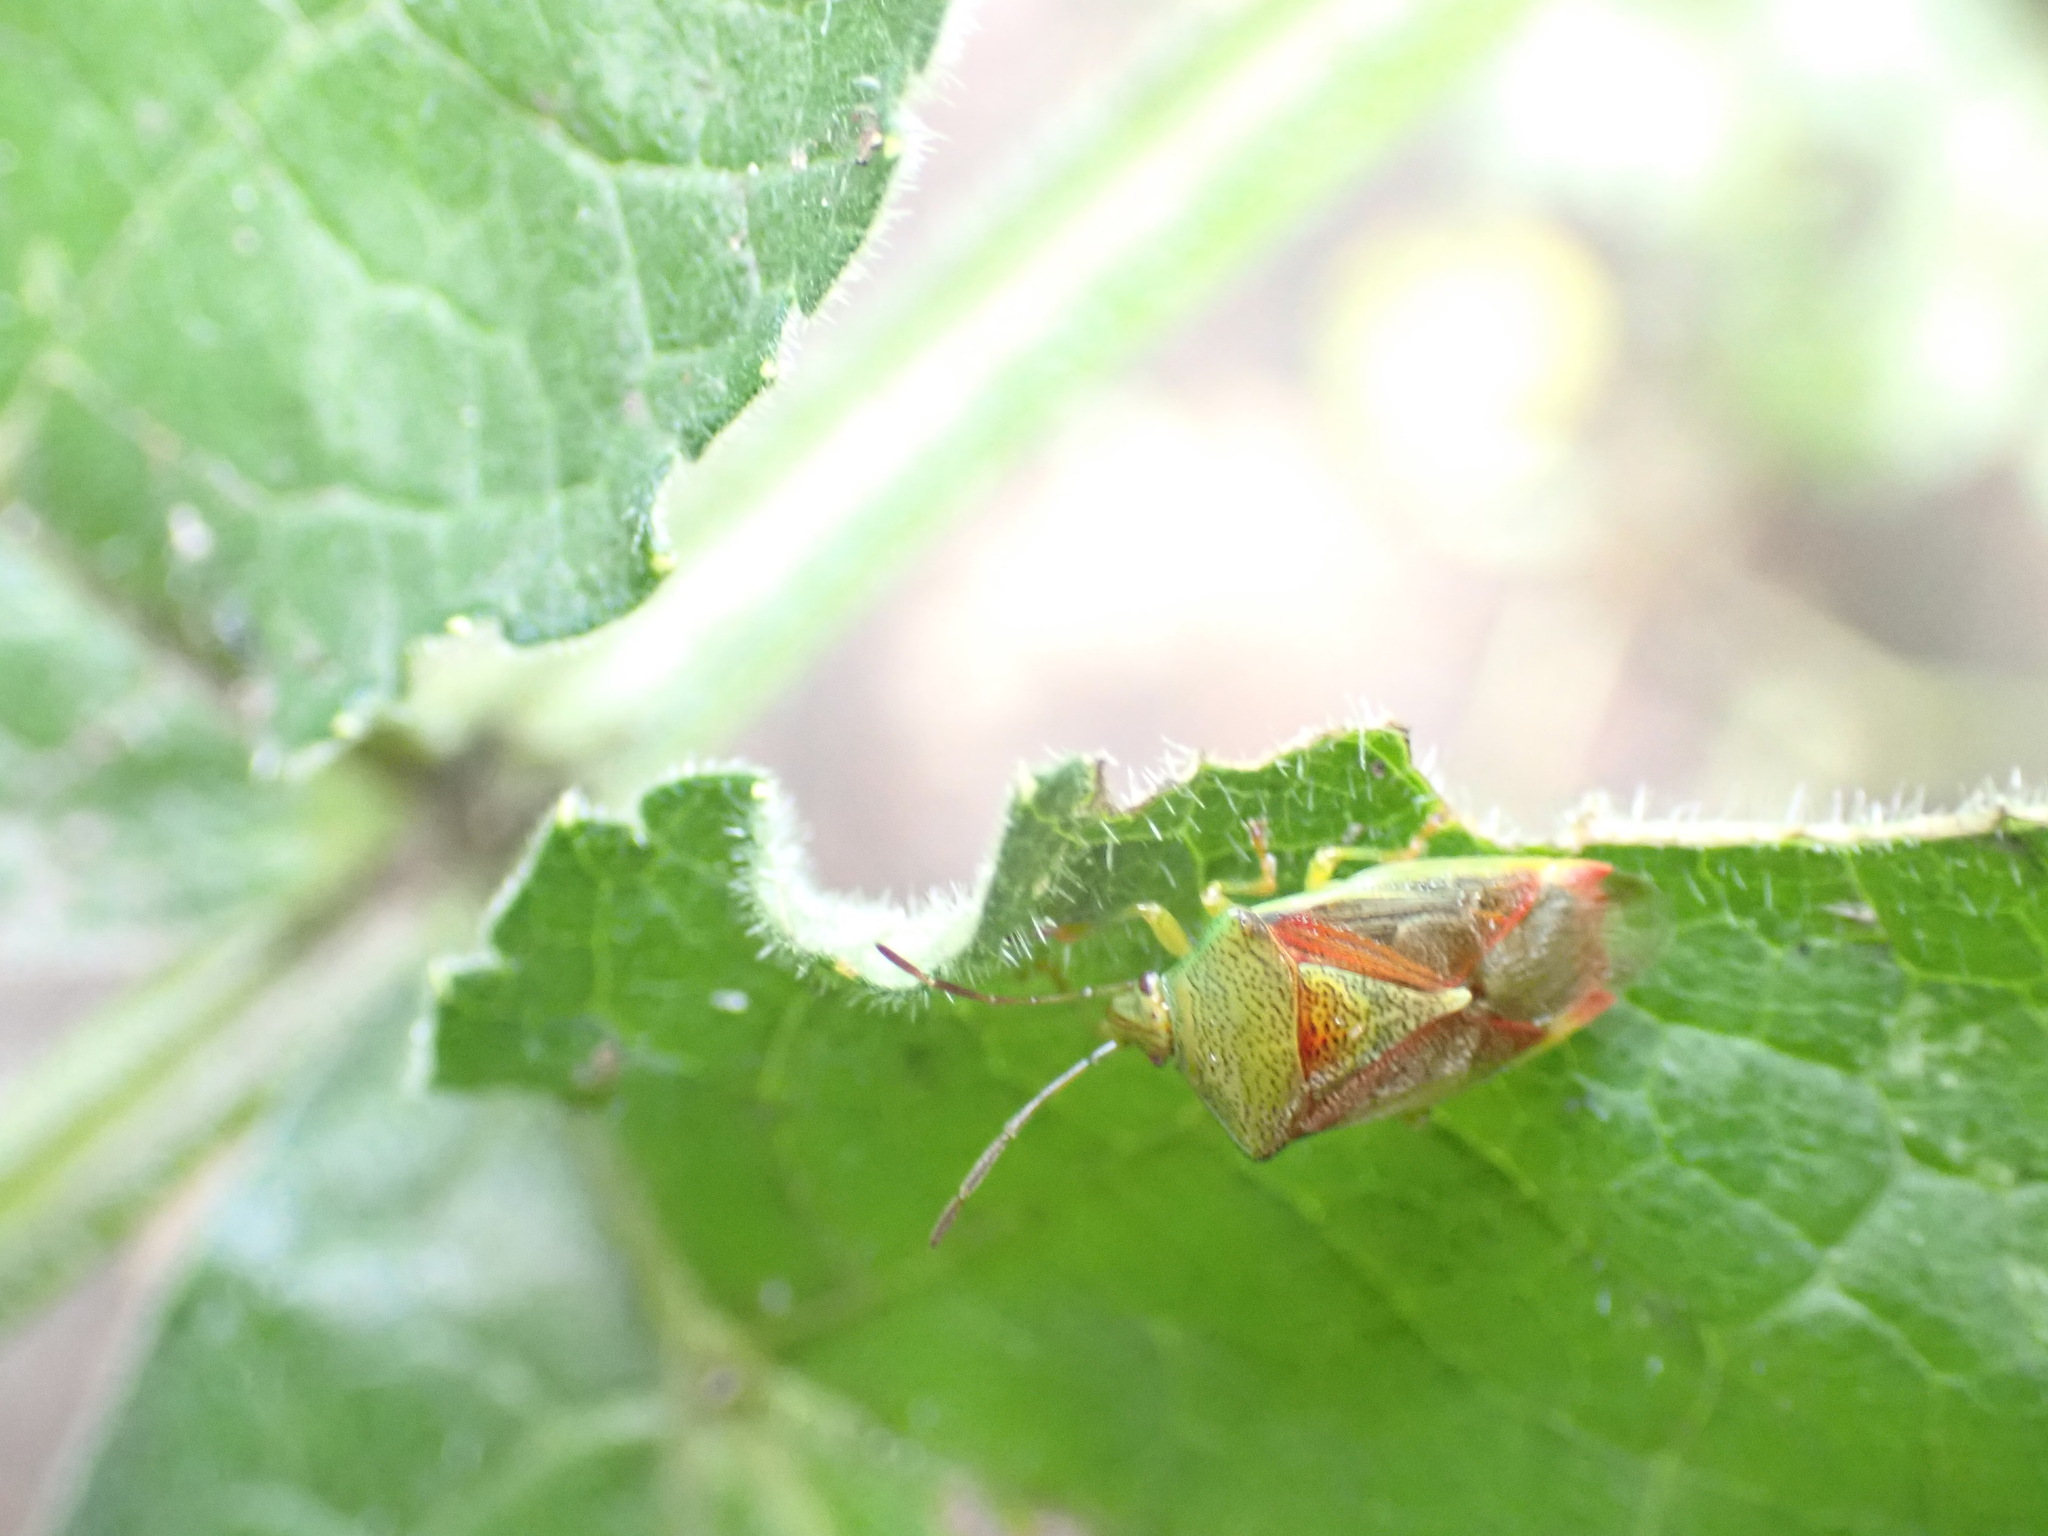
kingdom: Animalia
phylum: Arthropoda
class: Insecta
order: Hemiptera
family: Acanthosomatidae
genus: Elasmostethus
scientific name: Elasmostethus interstinctus
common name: Birch shieldbug
